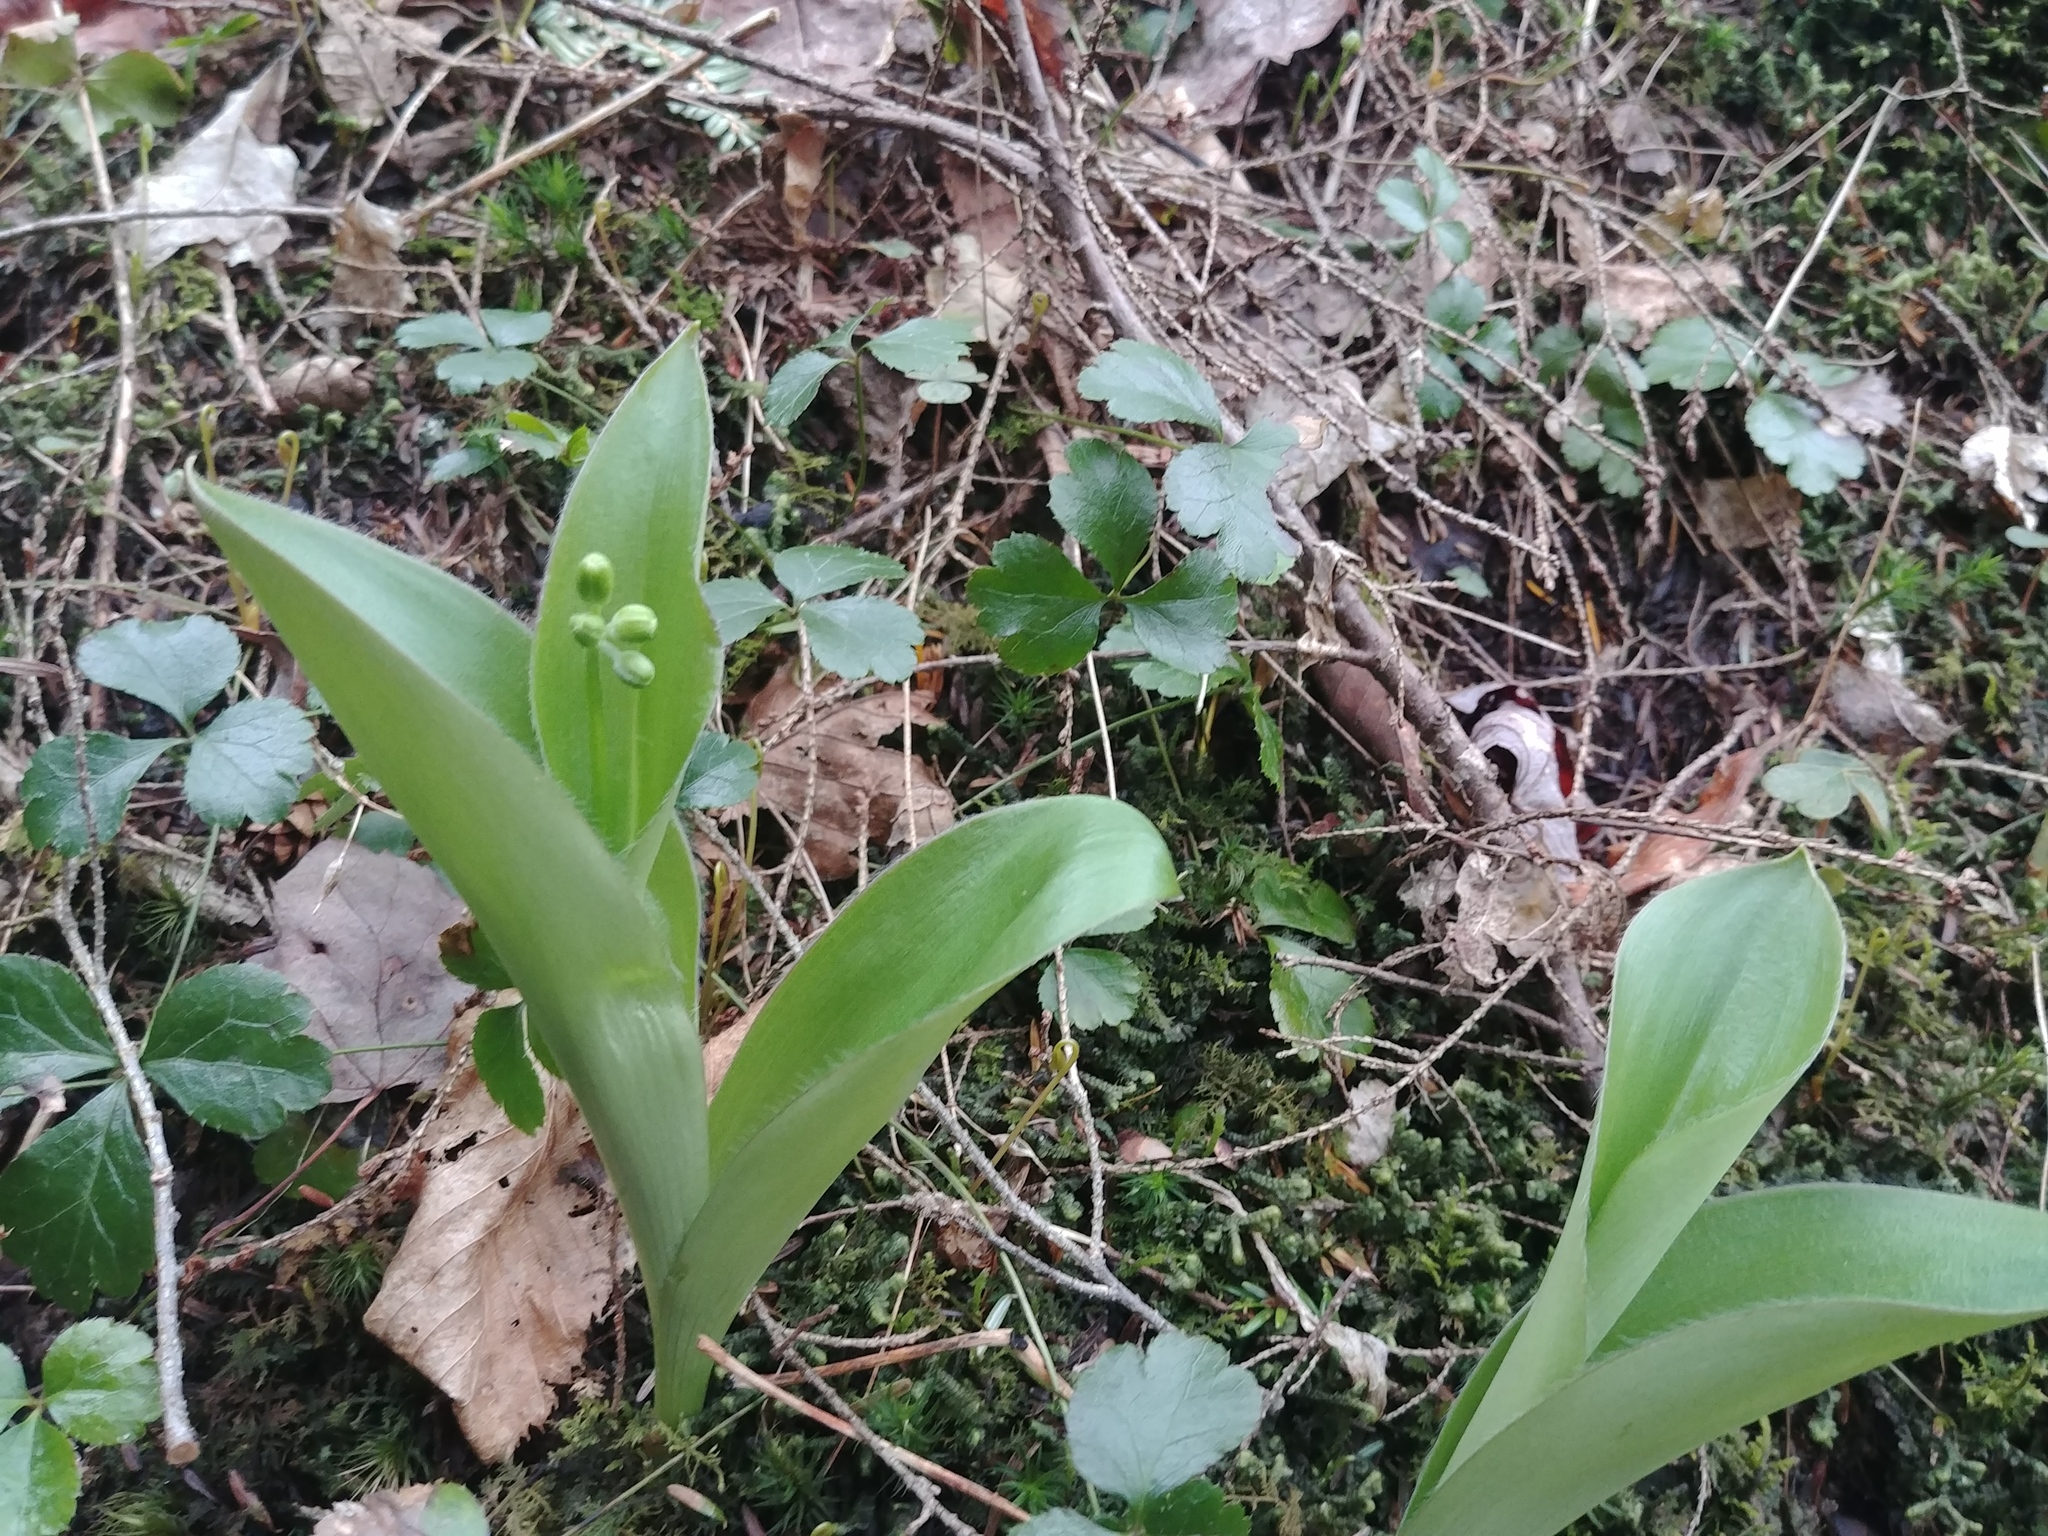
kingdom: Plantae
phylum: Tracheophyta
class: Liliopsida
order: Liliales
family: Liliaceae
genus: Clintonia
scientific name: Clintonia borealis
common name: Yellow clintonia
